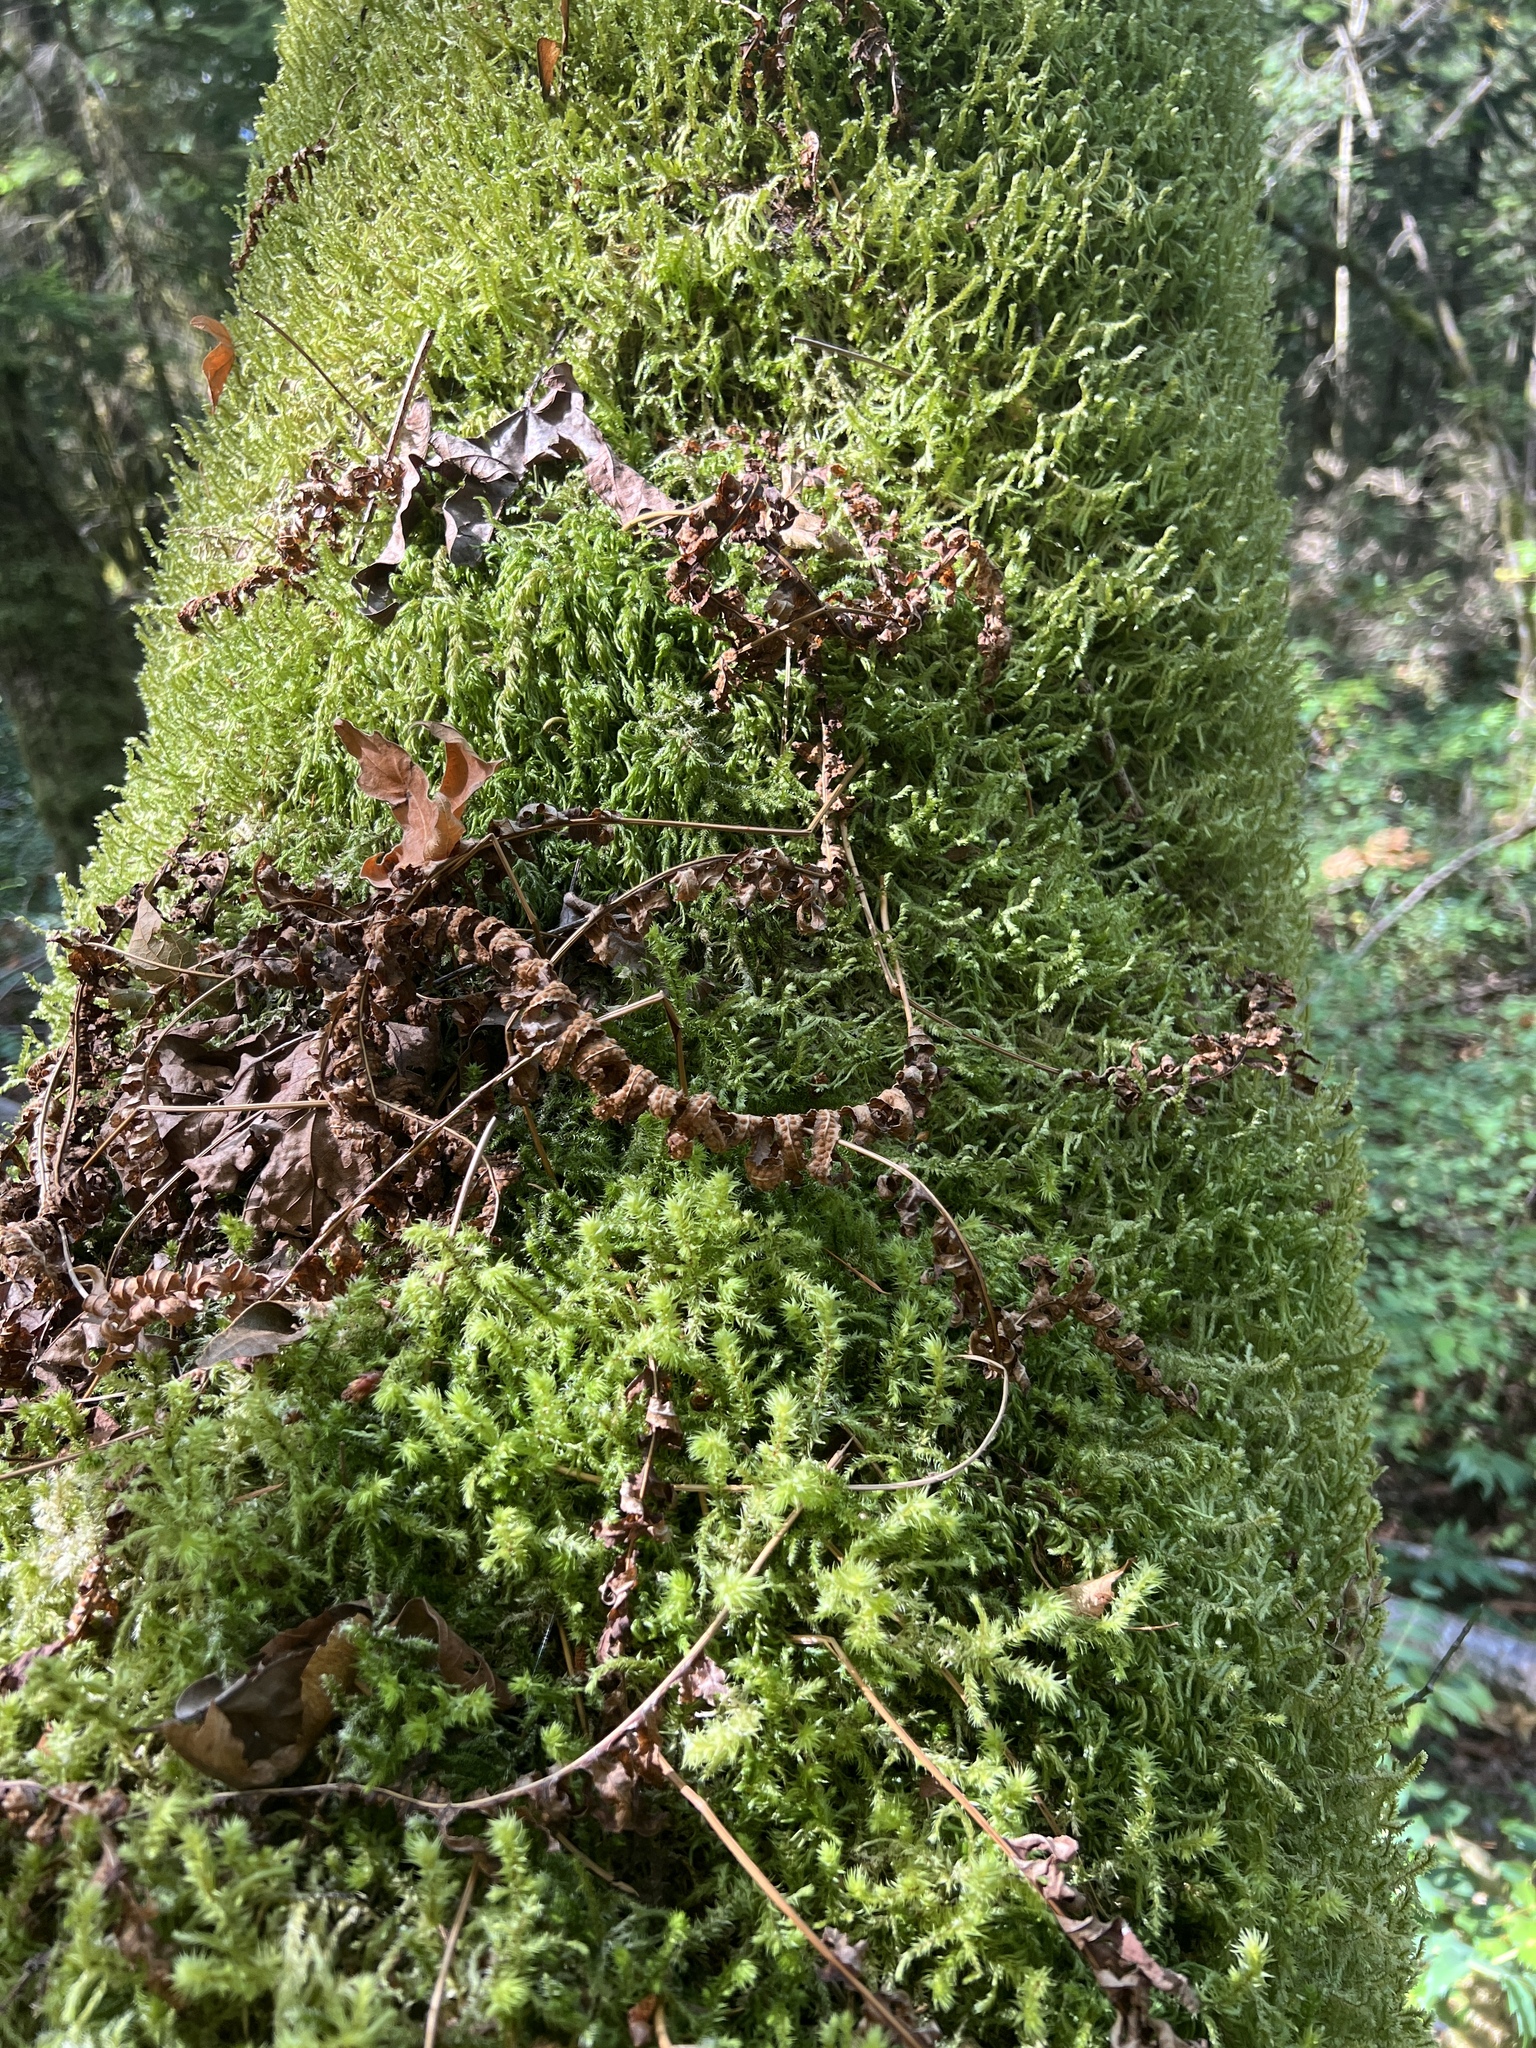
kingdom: Plantae
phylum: Tracheophyta
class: Polypodiopsida
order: Polypodiales
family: Polypodiaceae
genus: Polypodium
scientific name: Polypodium glycyrrhiza
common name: Licorice fern
